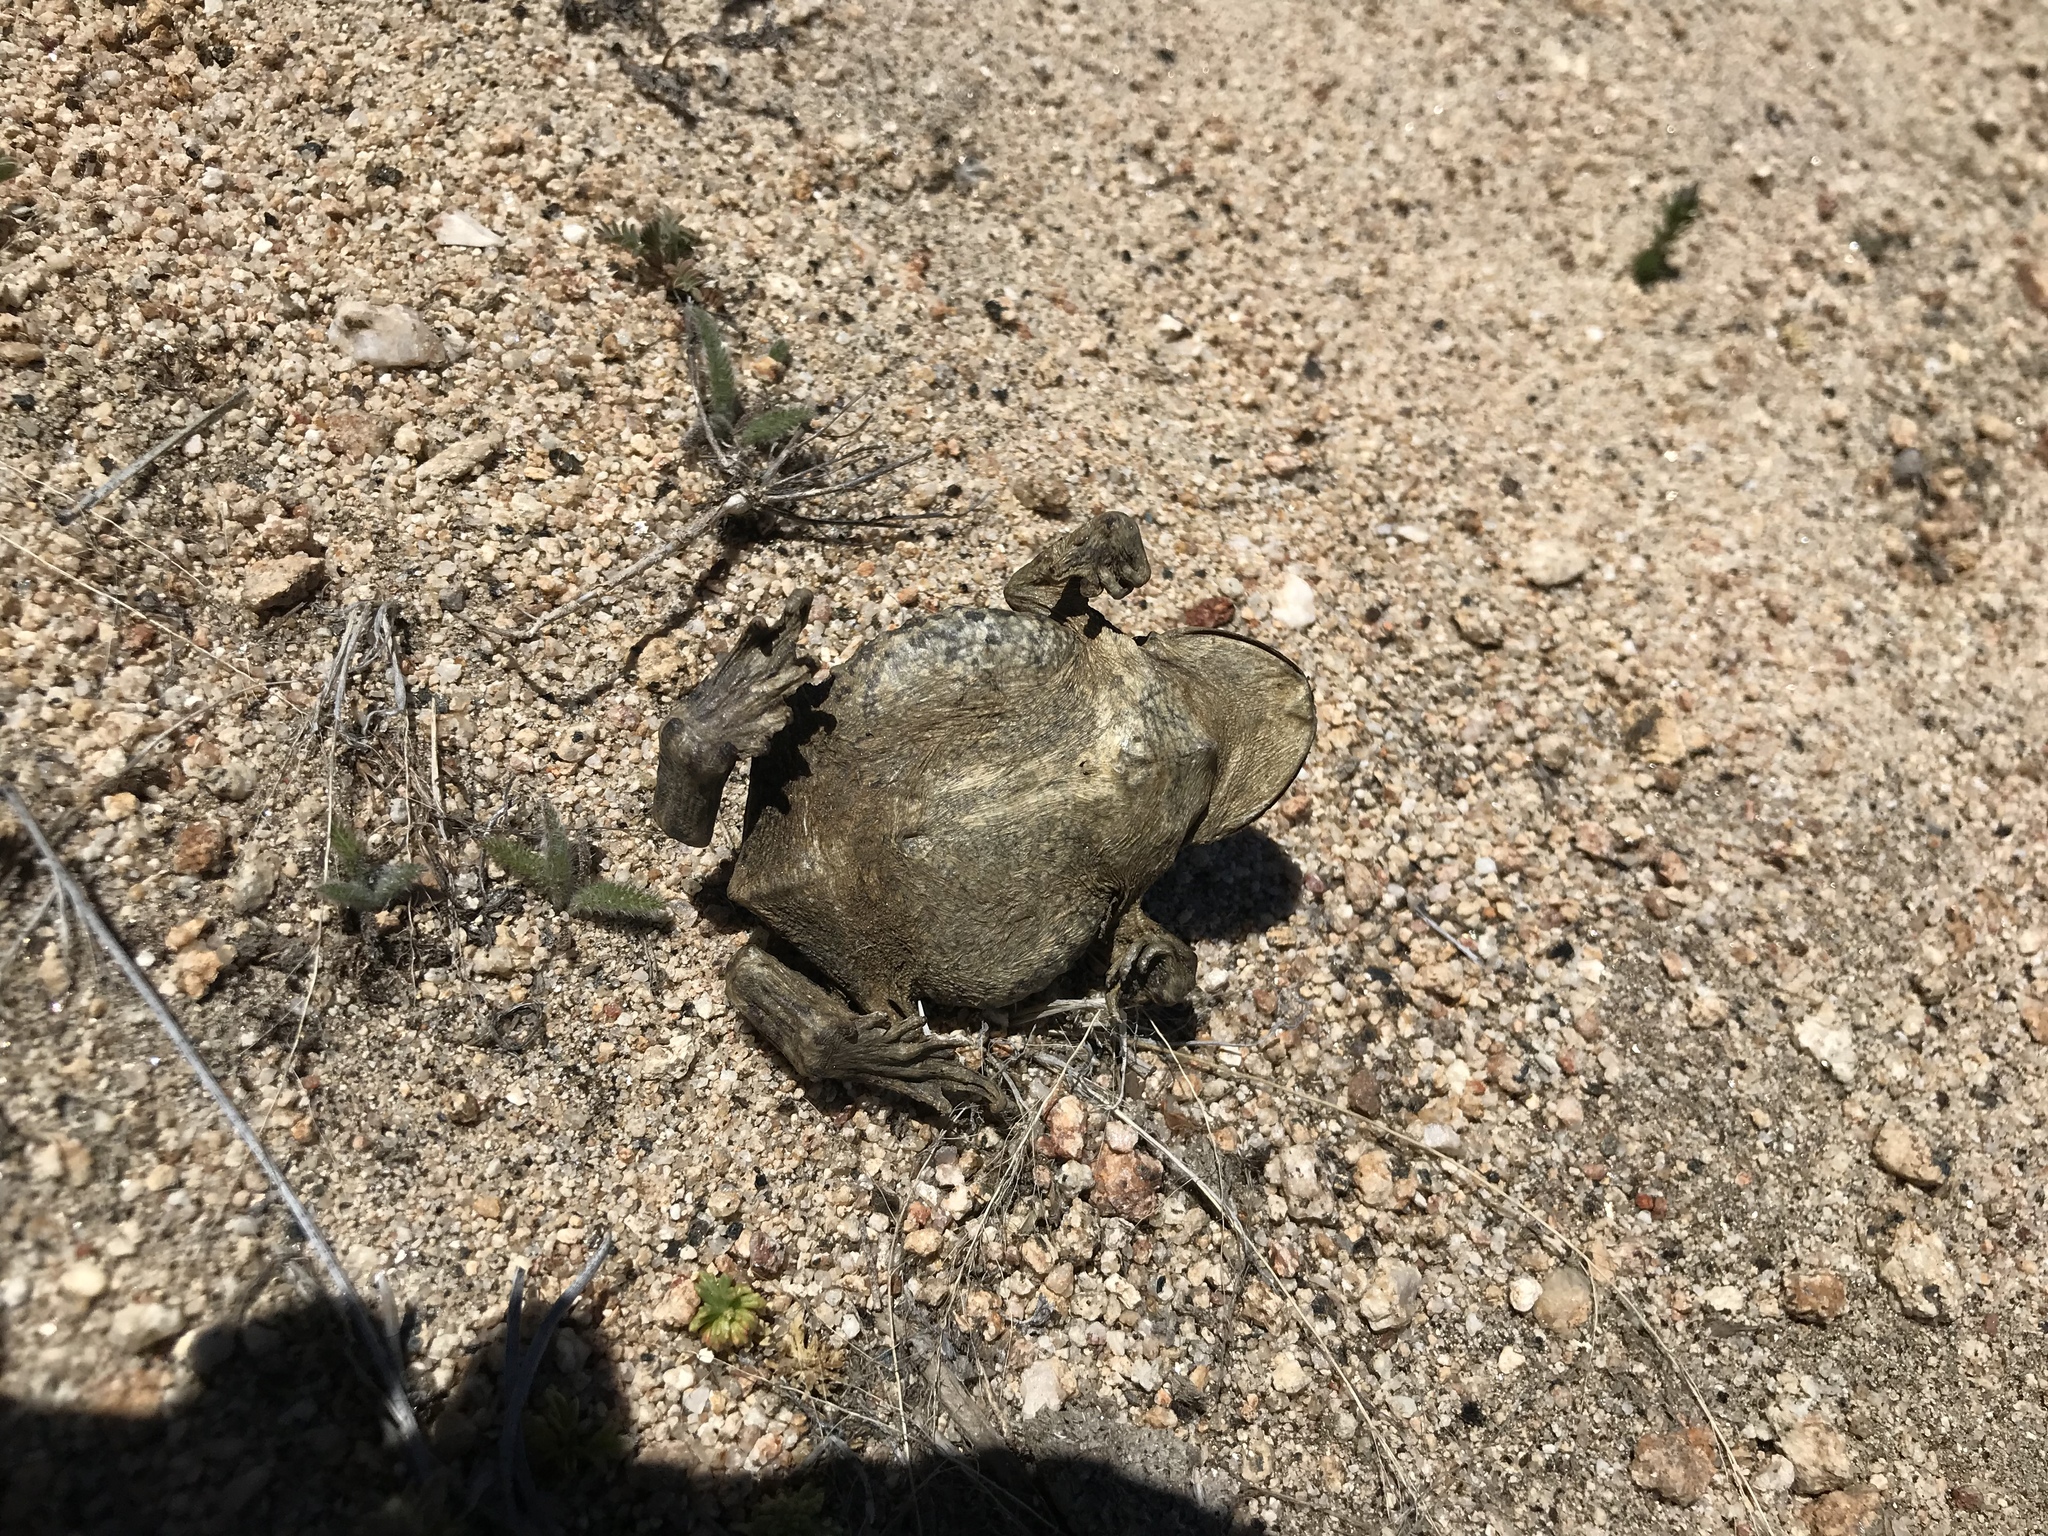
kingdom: Animalia
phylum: Chordata
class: Amphibia
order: Anura
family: Bufonidae
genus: Anaxyrus
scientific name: Anaxyrus boreas
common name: Western toad
